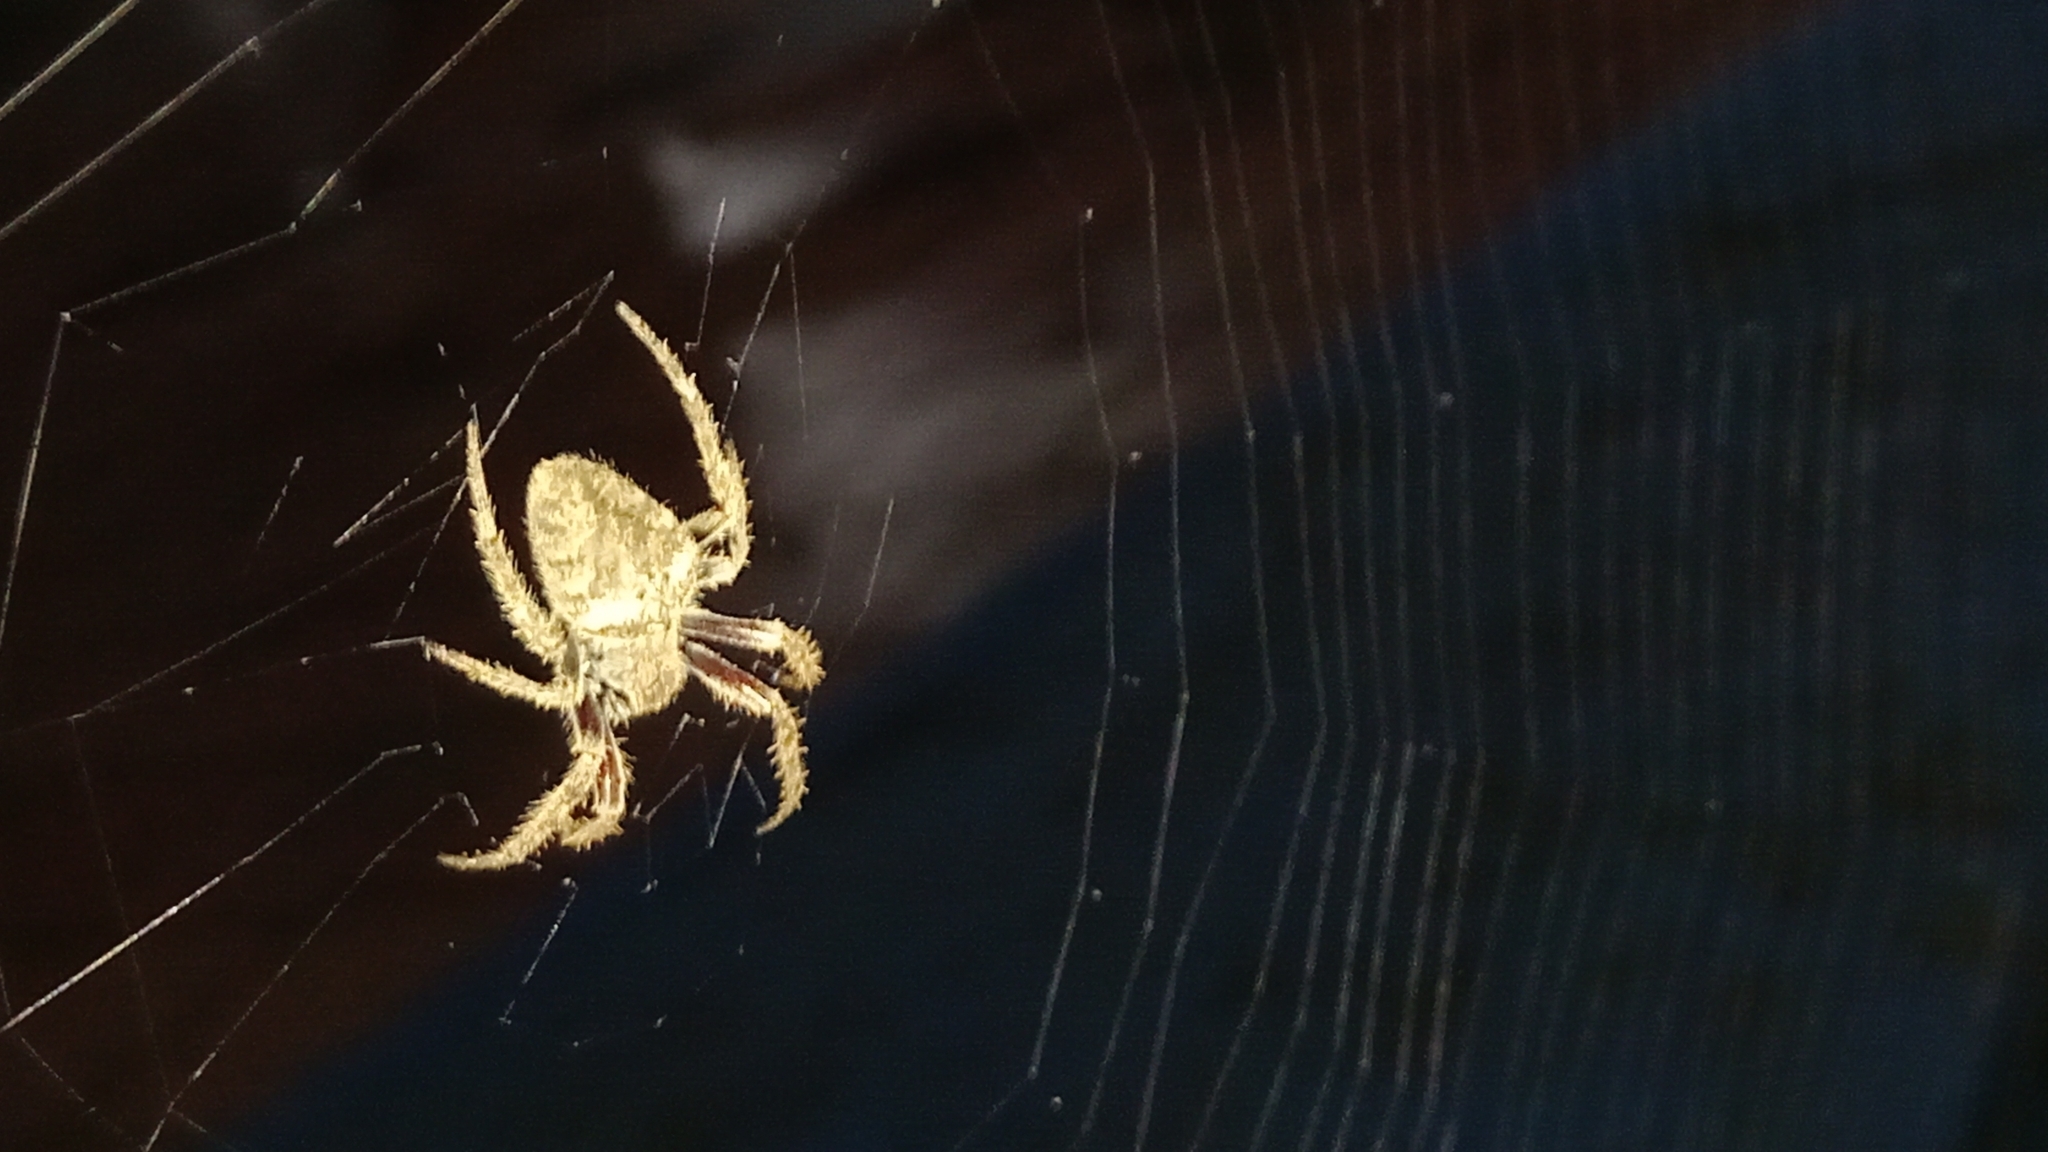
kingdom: Animalia
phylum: Arthropoda
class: Arachnida
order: Araneae
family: Araneidae
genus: Eriophora
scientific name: Eriophora edax
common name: Orb weavers
